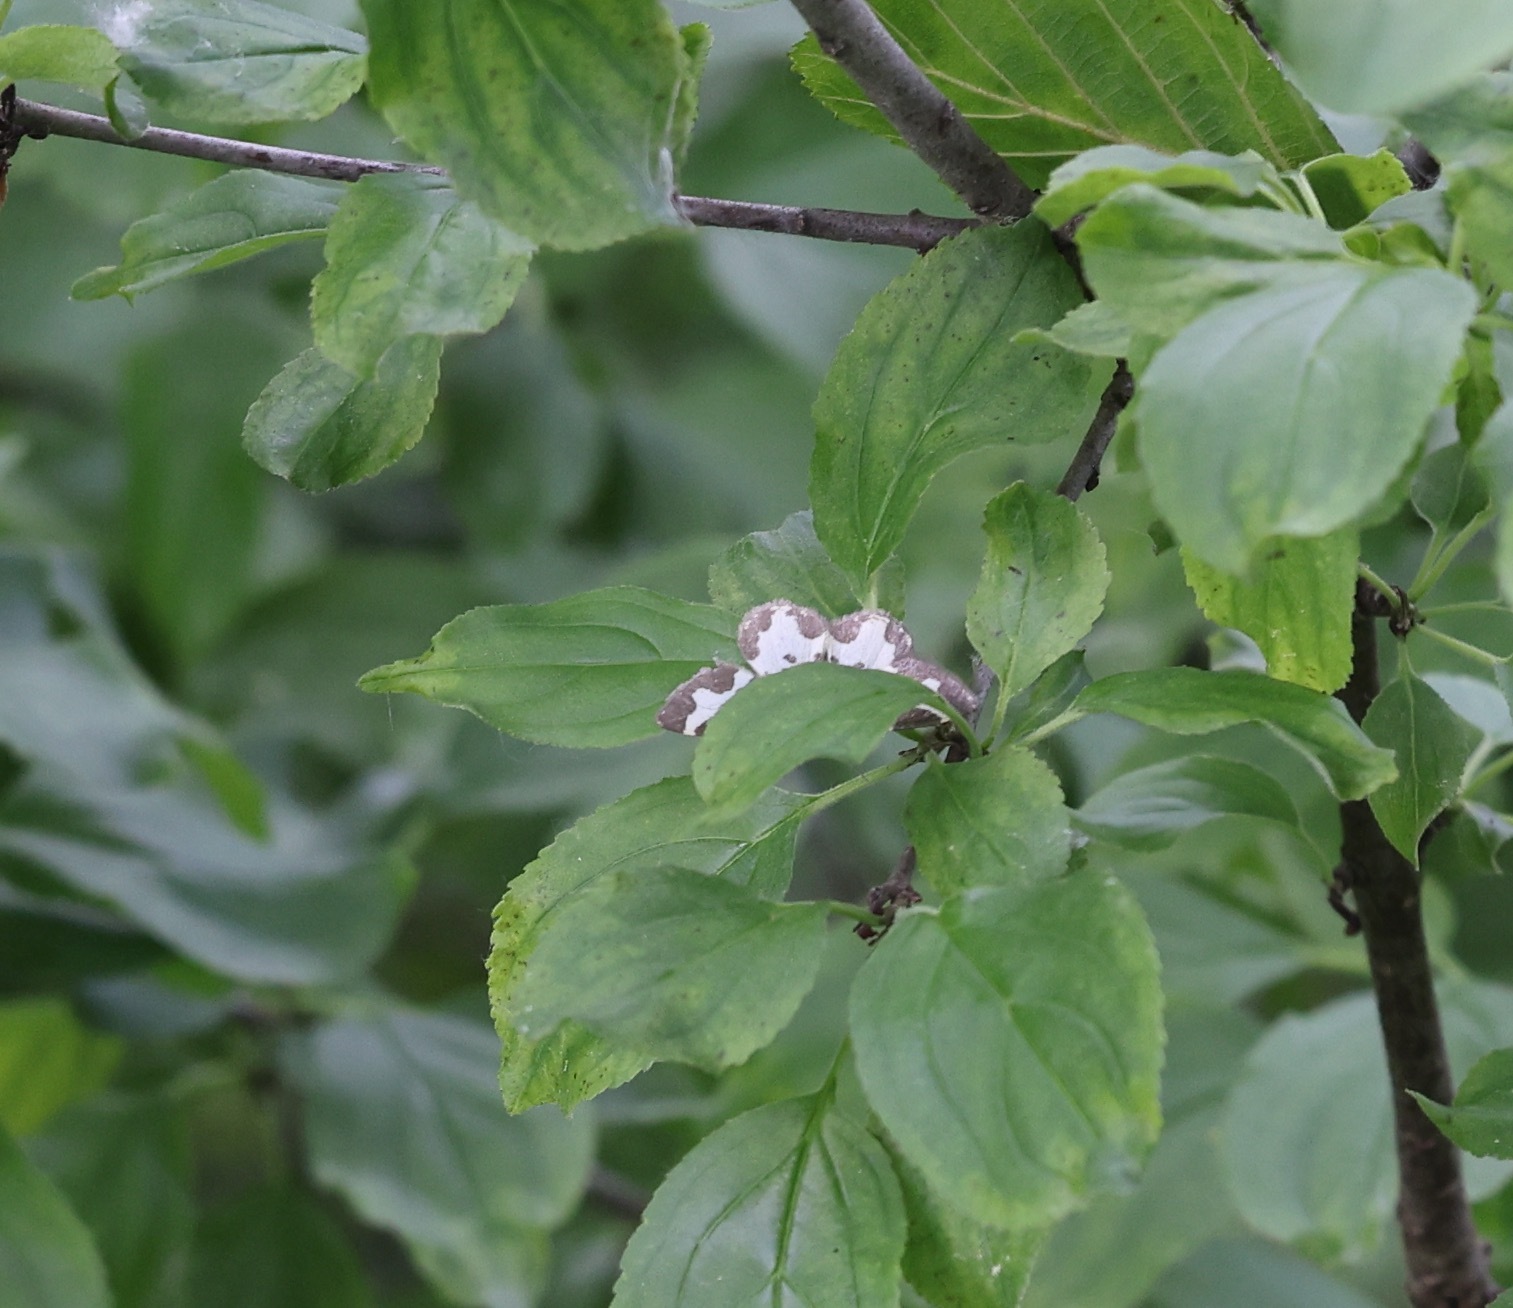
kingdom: Animalia
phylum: Arthropoda
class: Insecta
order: Lepidoptera
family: Geometridae
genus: Lomaspilis
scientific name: Lomaspilis marginata
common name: Clouded border
